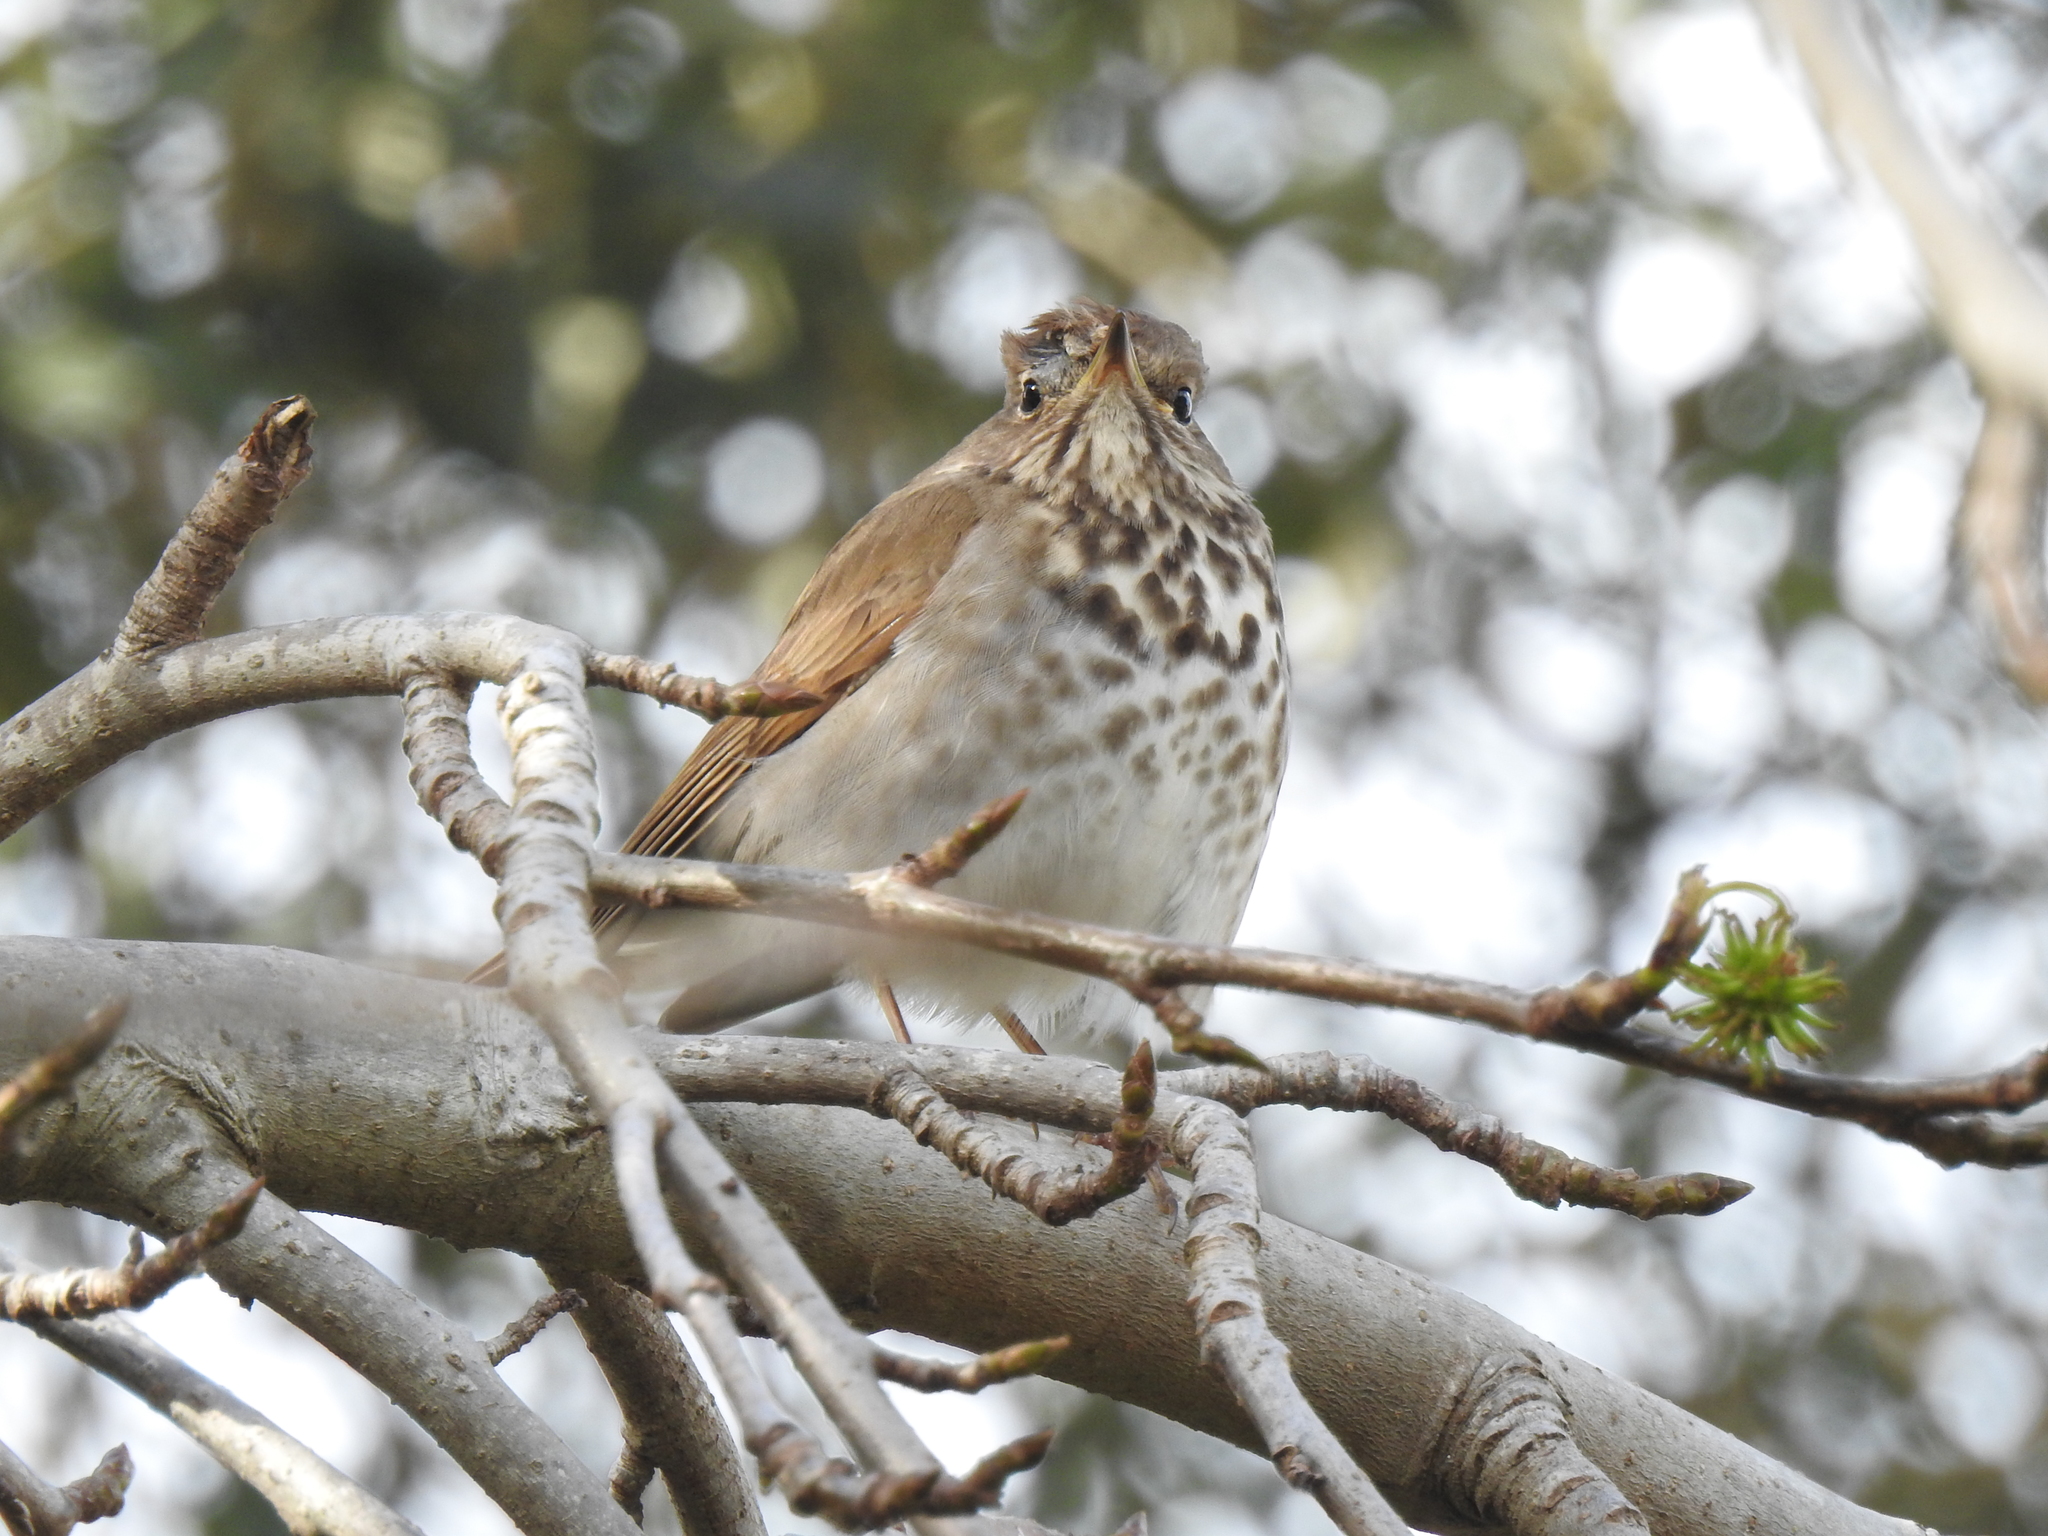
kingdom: Animalia
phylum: Chordata
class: Aves
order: Passeriformes
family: Turdidae
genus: Catharus
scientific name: Catharus guttatus
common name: Hermit thrush
